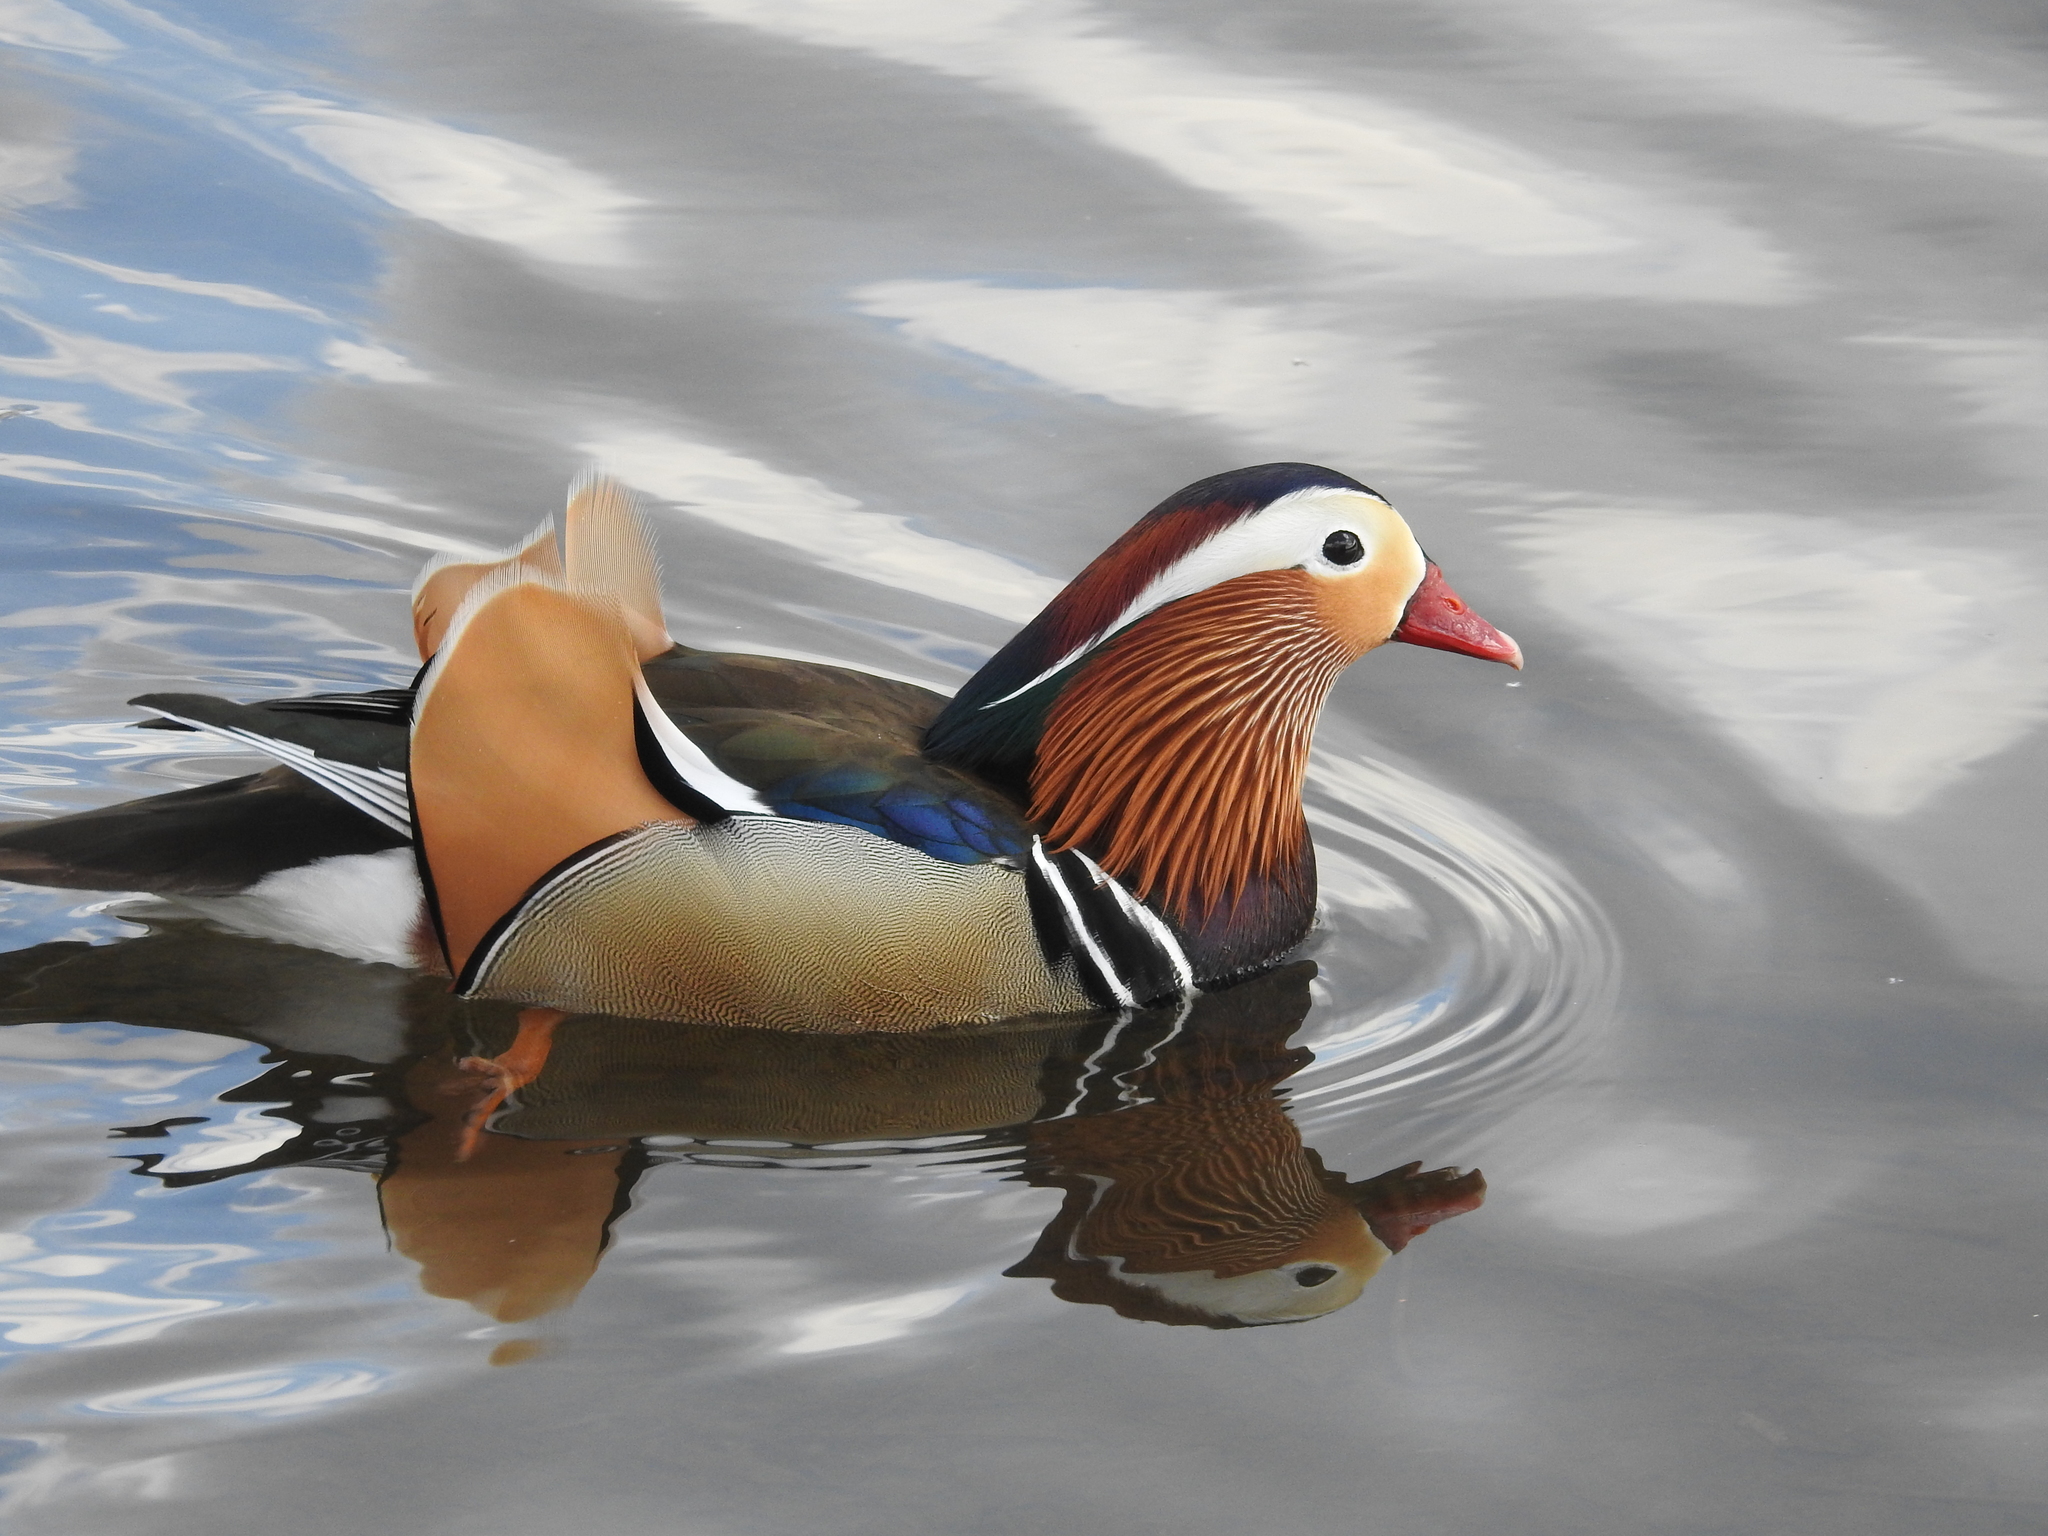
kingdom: Animalia
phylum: Chordata
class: Aves
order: Anseriformes
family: Anatidae
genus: Aix
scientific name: Aix galericulata
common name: Mandarin duck
